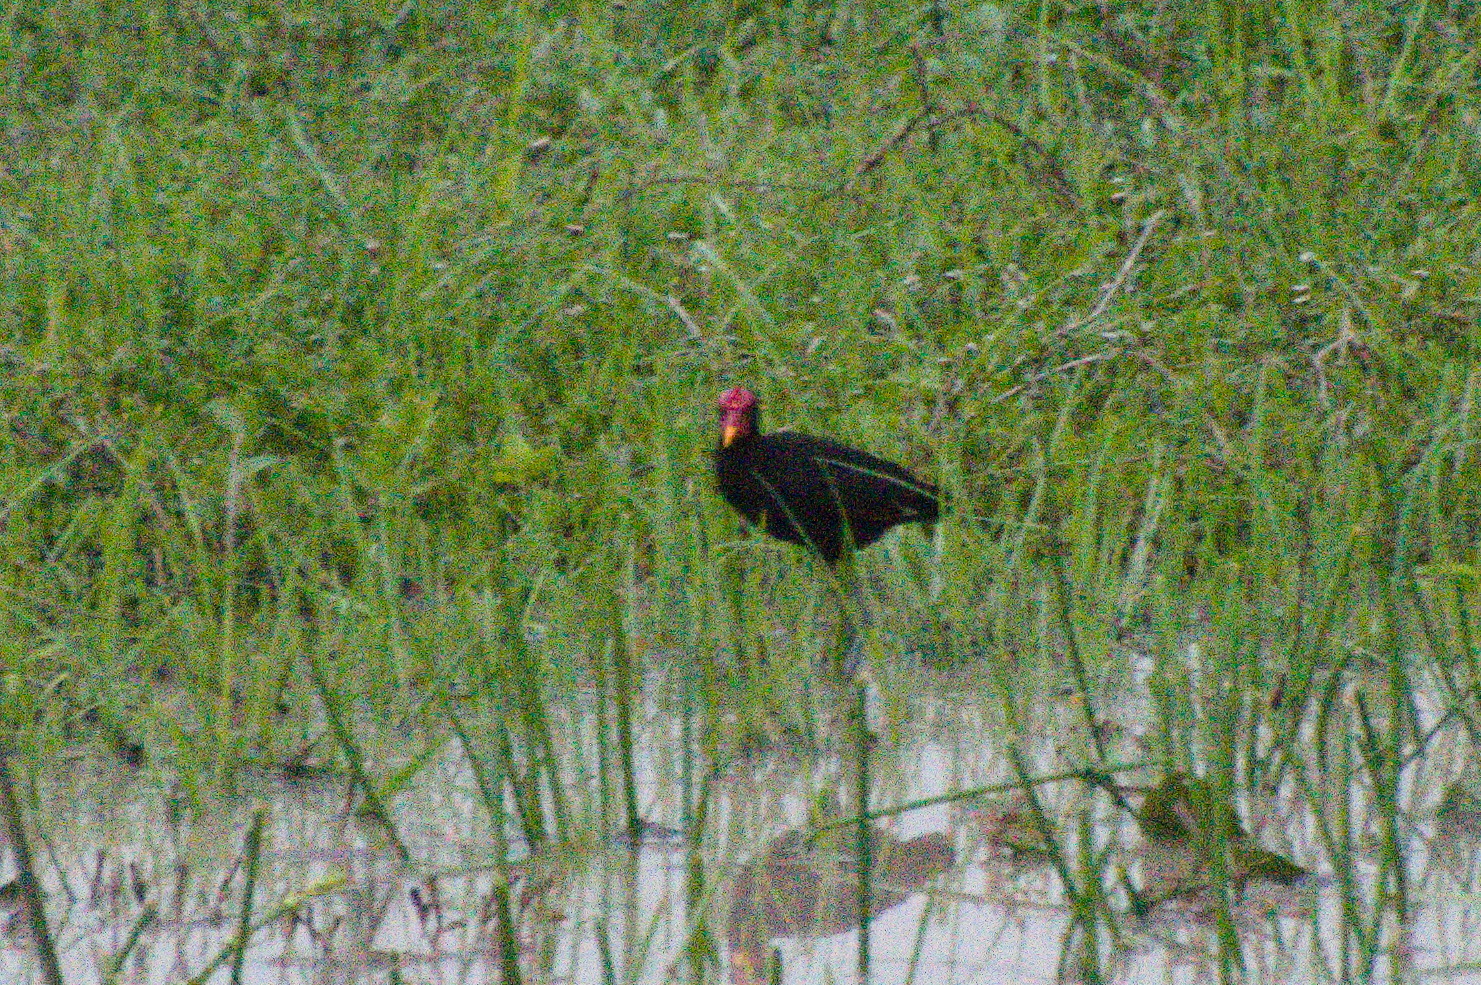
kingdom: Animalia
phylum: Chordata
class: Aves
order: Charadriiformes
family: Jacanidae
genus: Jacana
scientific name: Jacana jacana
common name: Wattled jacana
